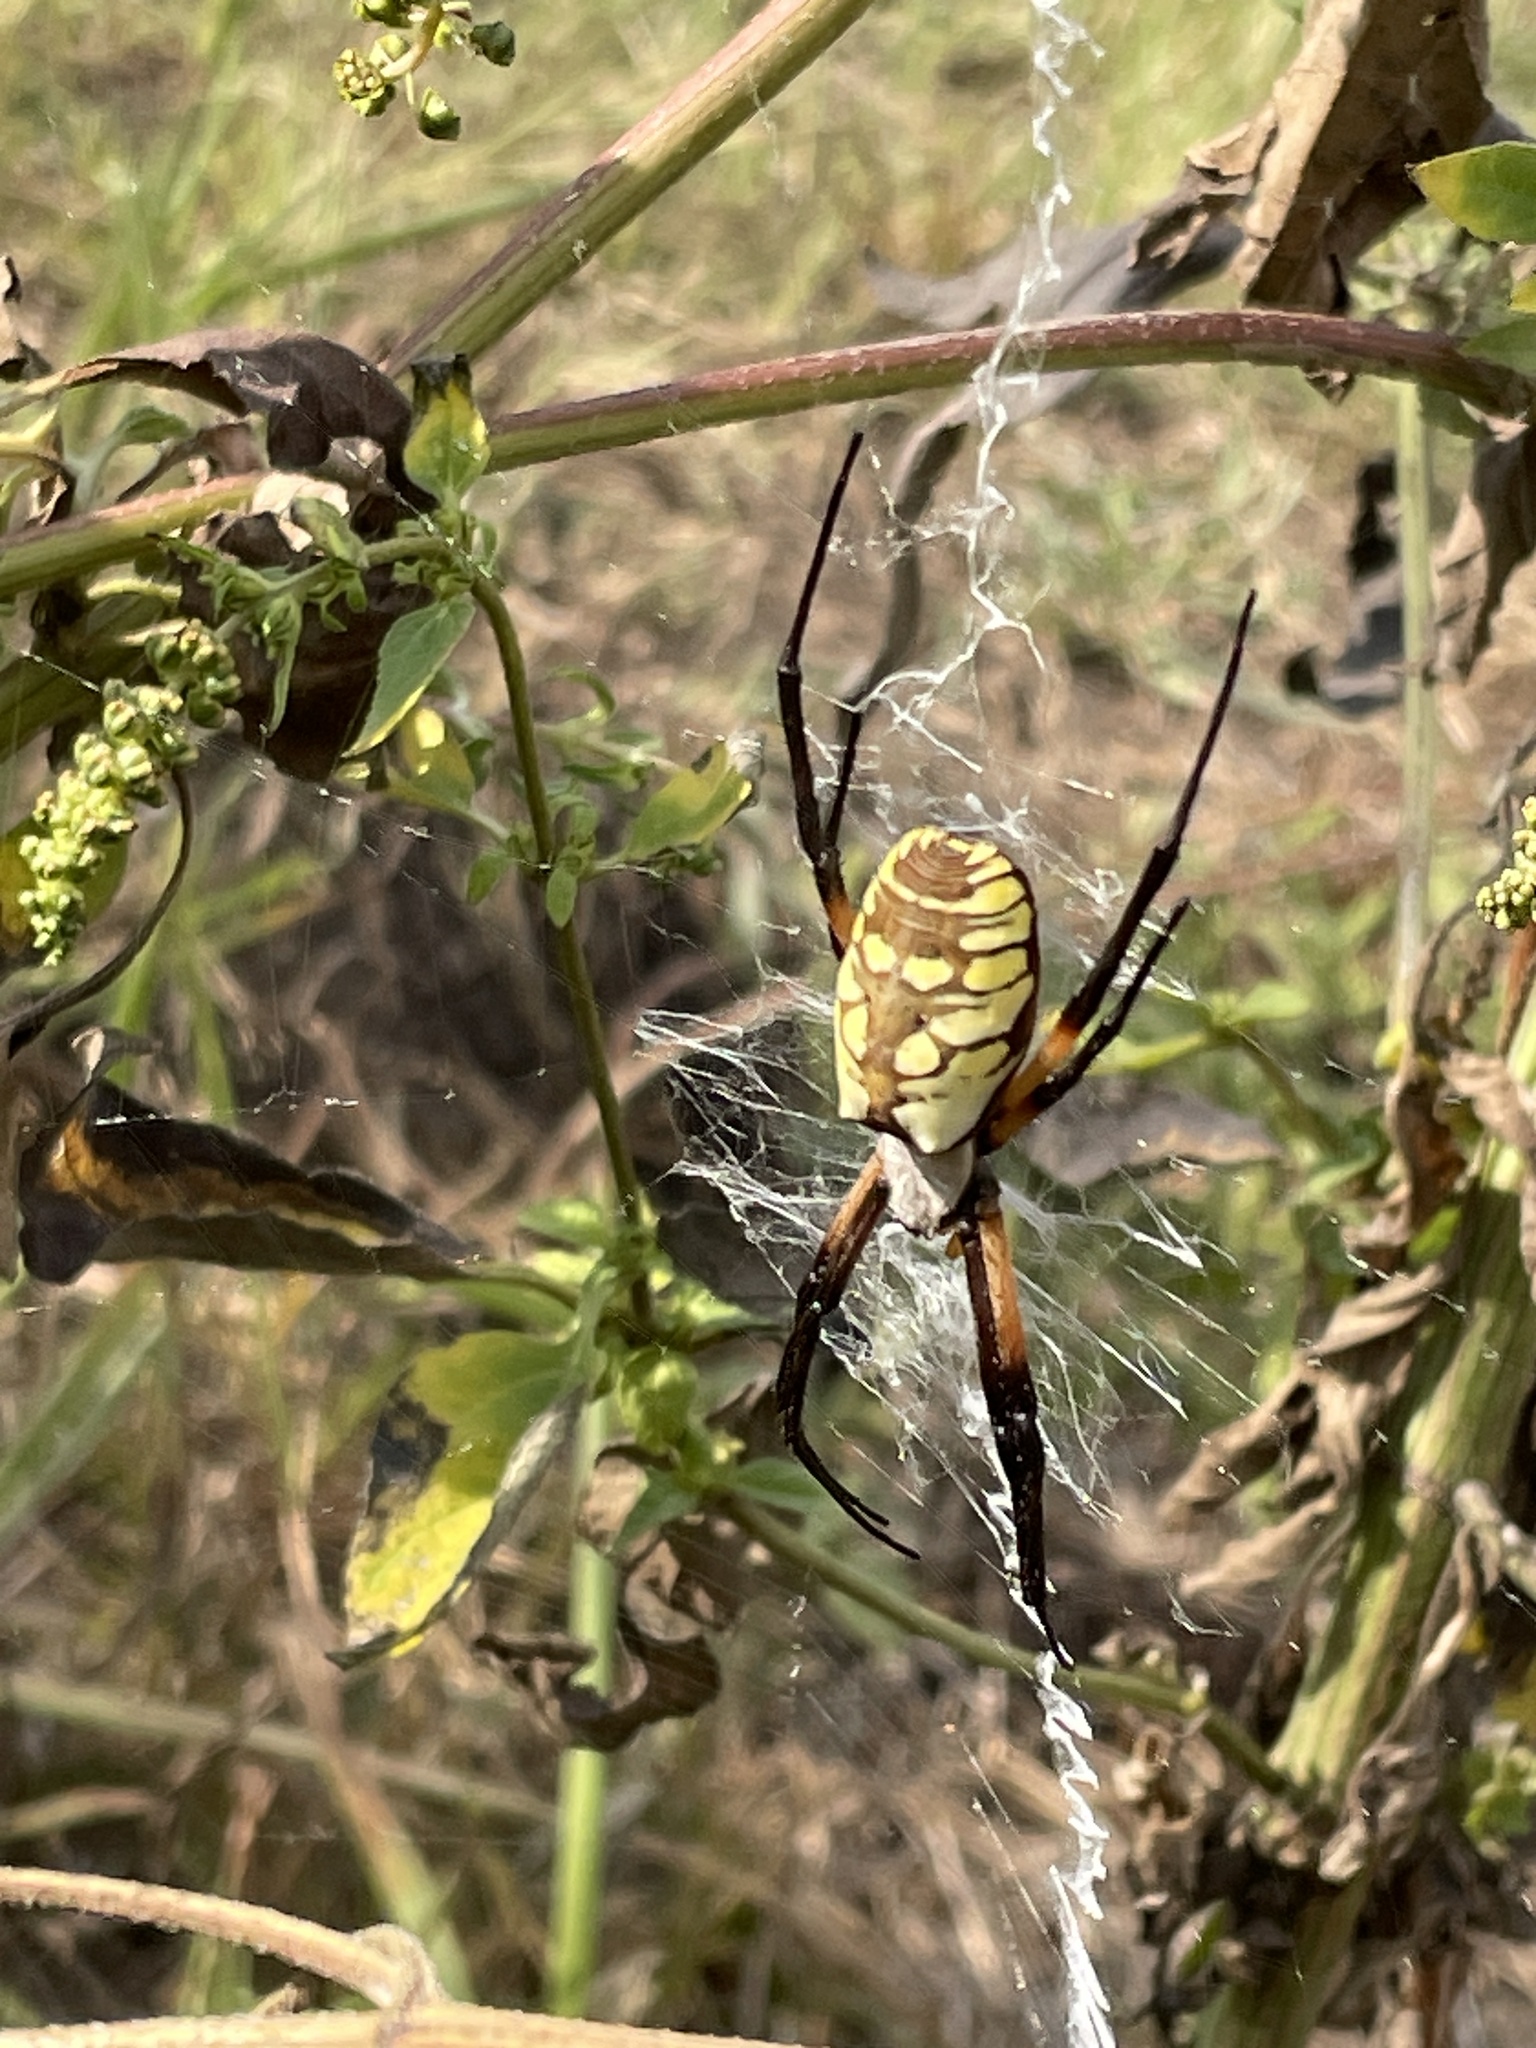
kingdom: Animalia
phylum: Arthropoda
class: Arachnida
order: Araneae
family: Araneidae
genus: Argiope
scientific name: Argiope aurantia
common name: Orb weavers
